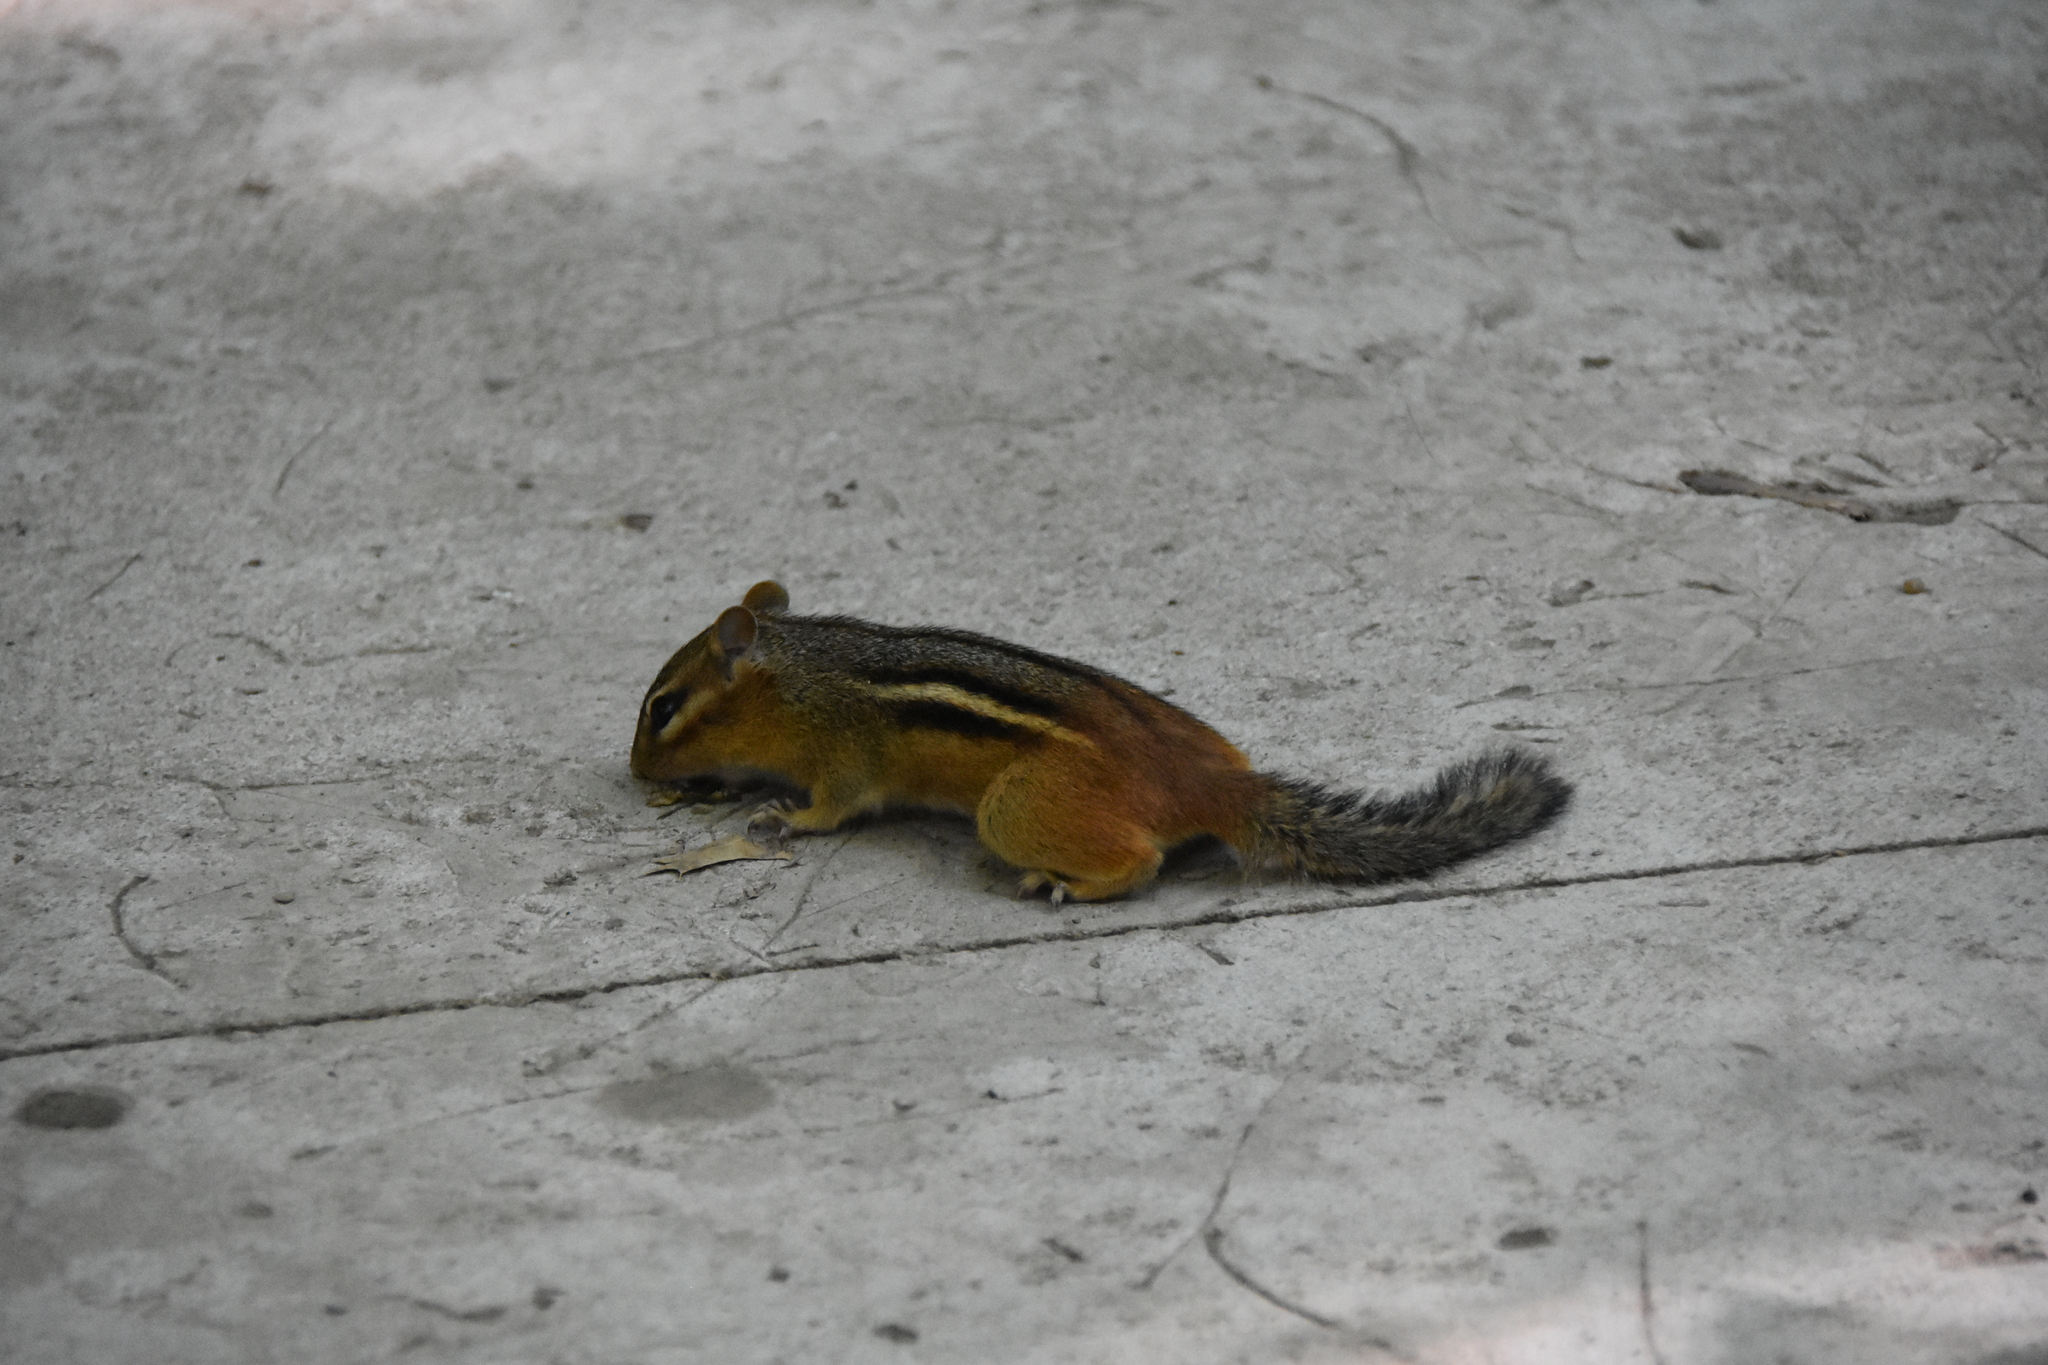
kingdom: Animalia
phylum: Chordata
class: Mammalia
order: Rodentia
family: Sciuridae
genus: Tamias
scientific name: Tamias striatus
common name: Eastern chipmunk
